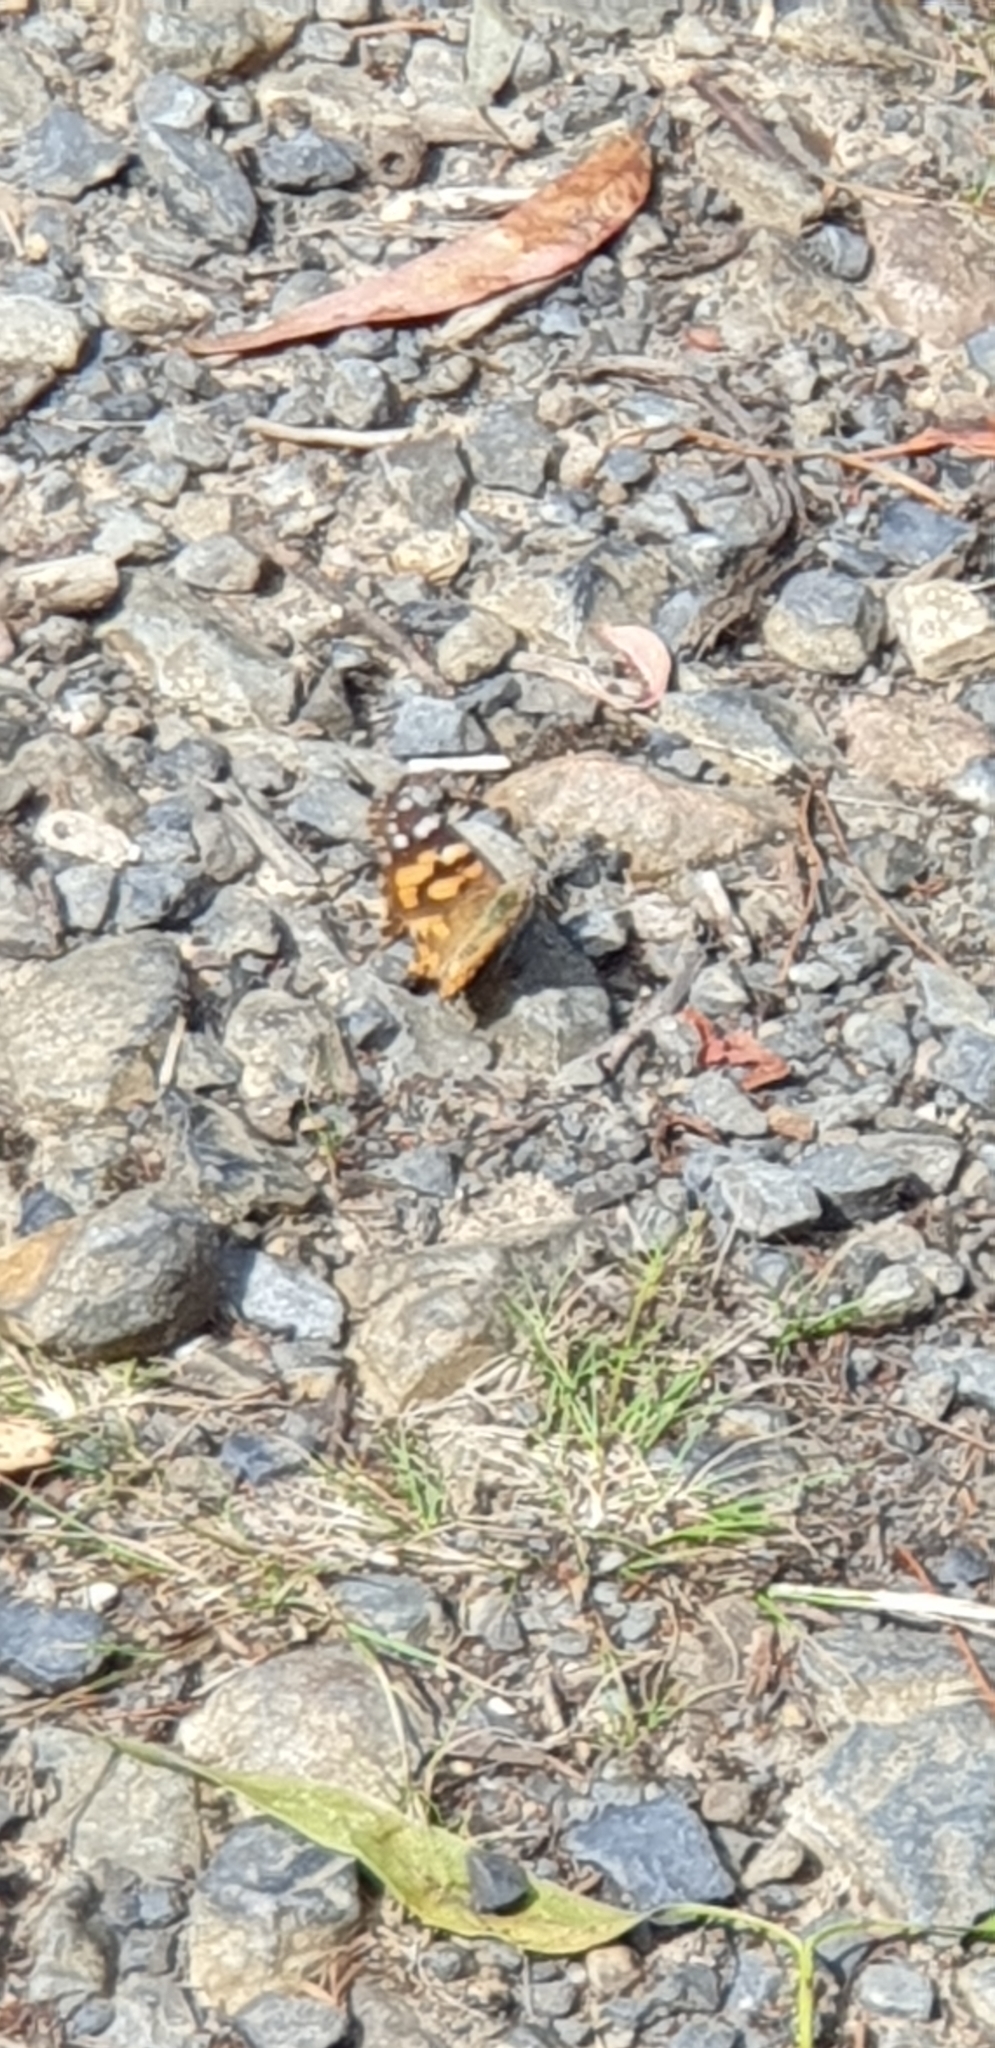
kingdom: Animalia
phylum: Arthropoda
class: Insecta
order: Lepidoptera
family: Nymphalidae
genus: Vanessa
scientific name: Vanessa kershawi
